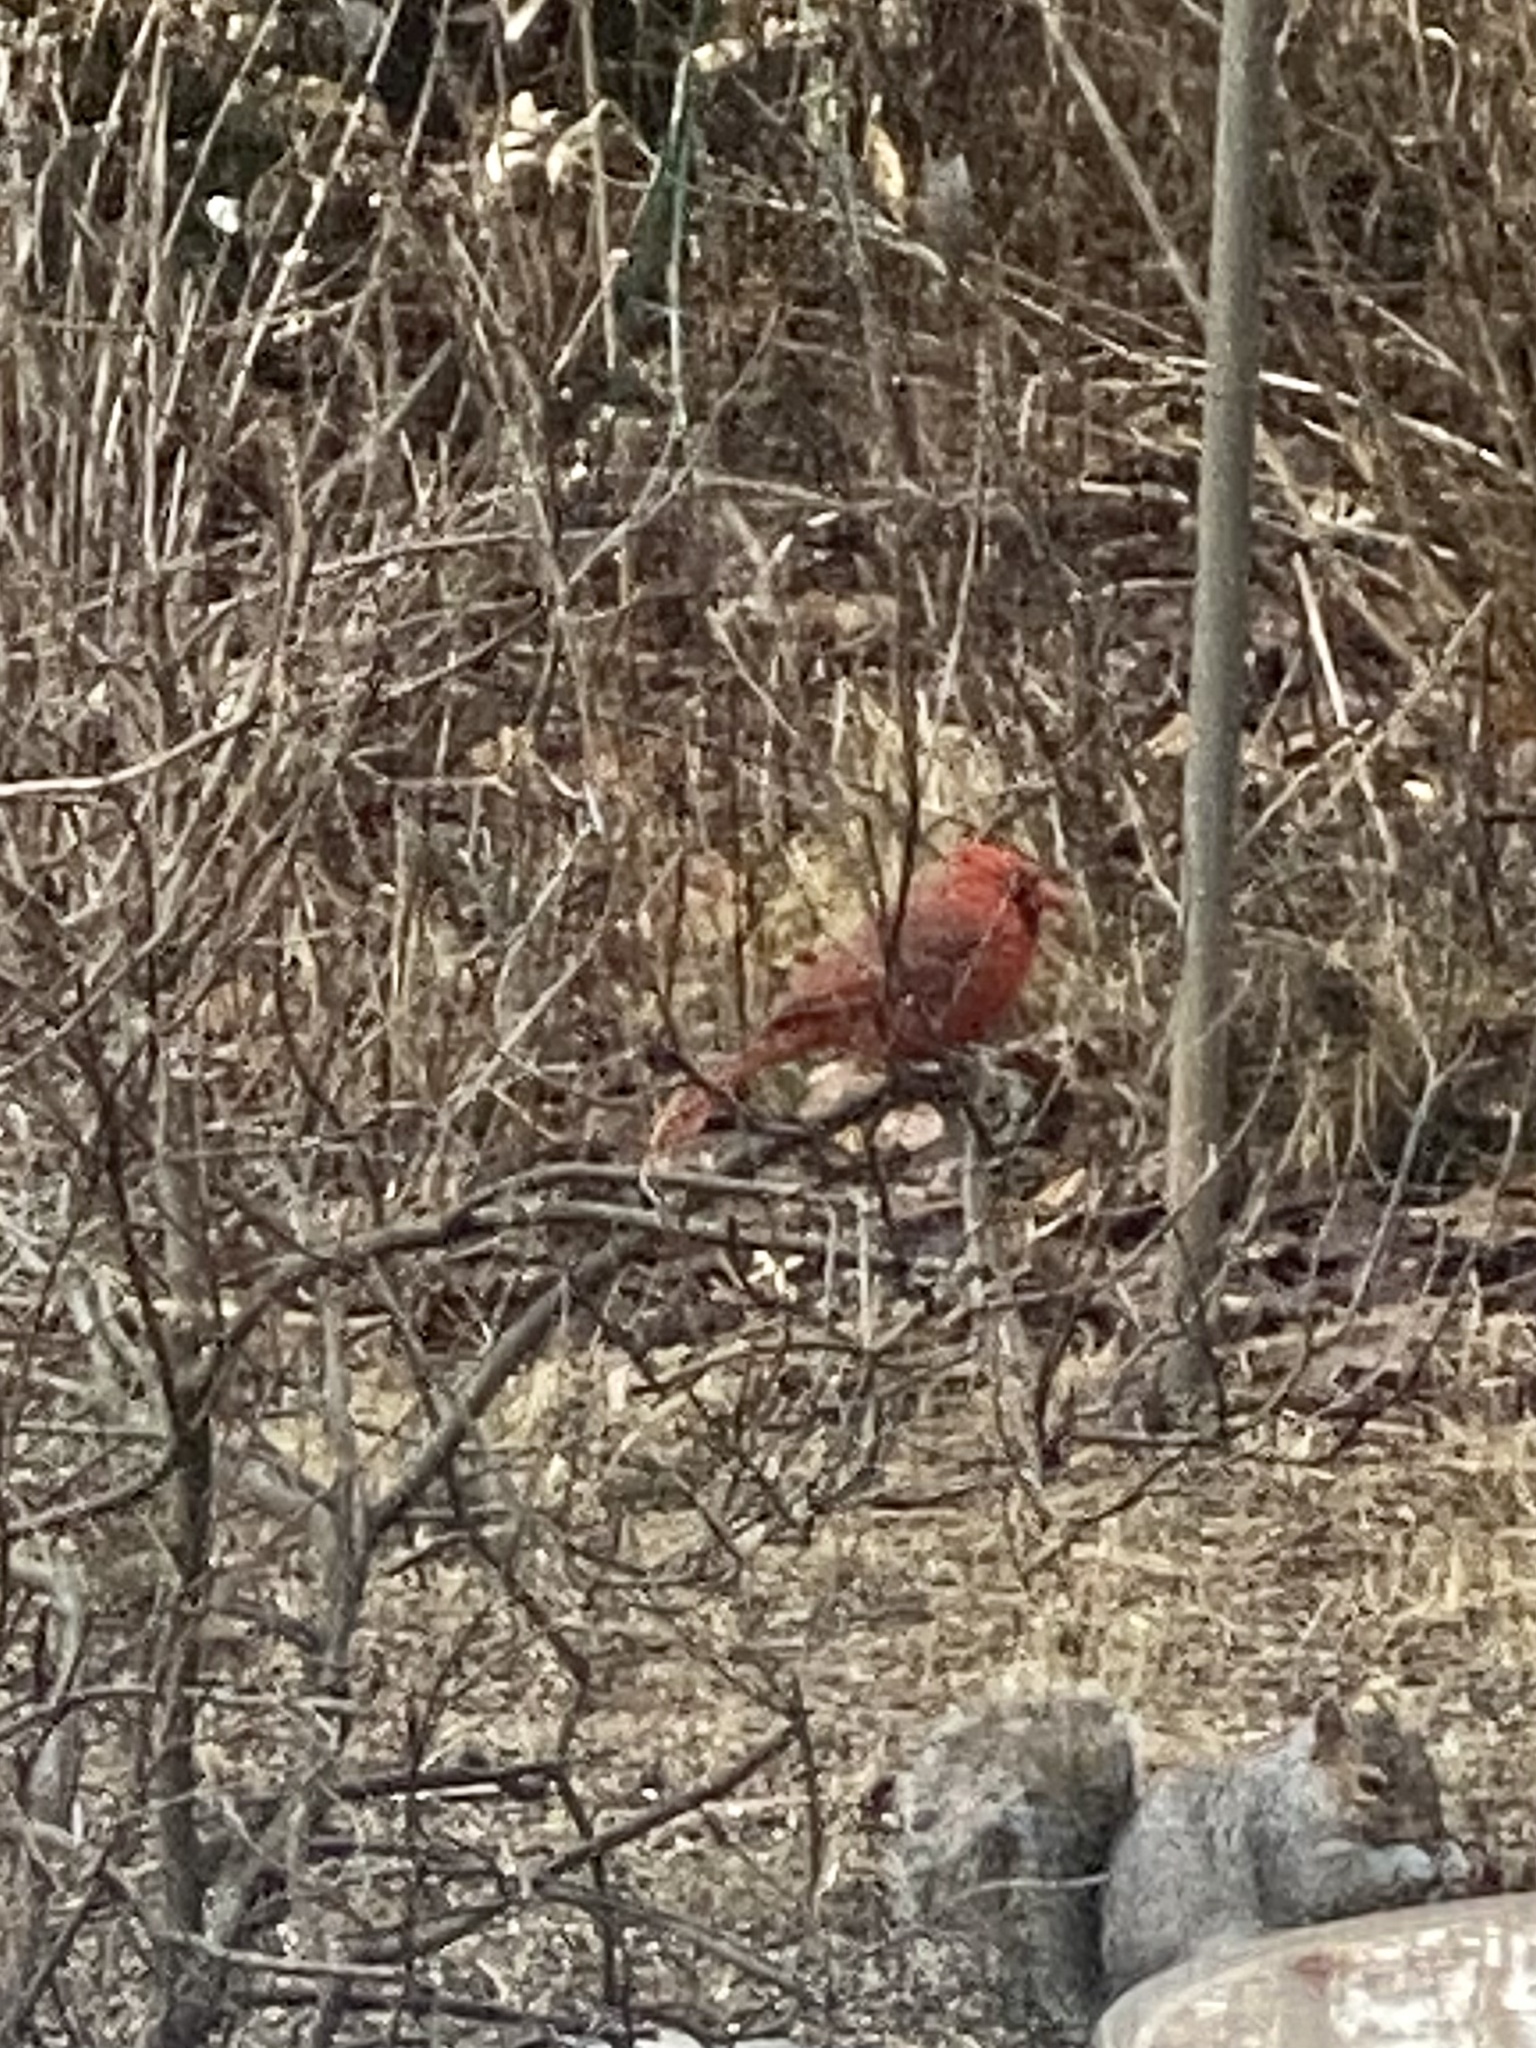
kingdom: Animalia
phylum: Chordata
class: Aves
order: Passeriformes
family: Cardinalidae
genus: Cardinalis
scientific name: Cardinalis cardinalis
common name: Northern cardinal
